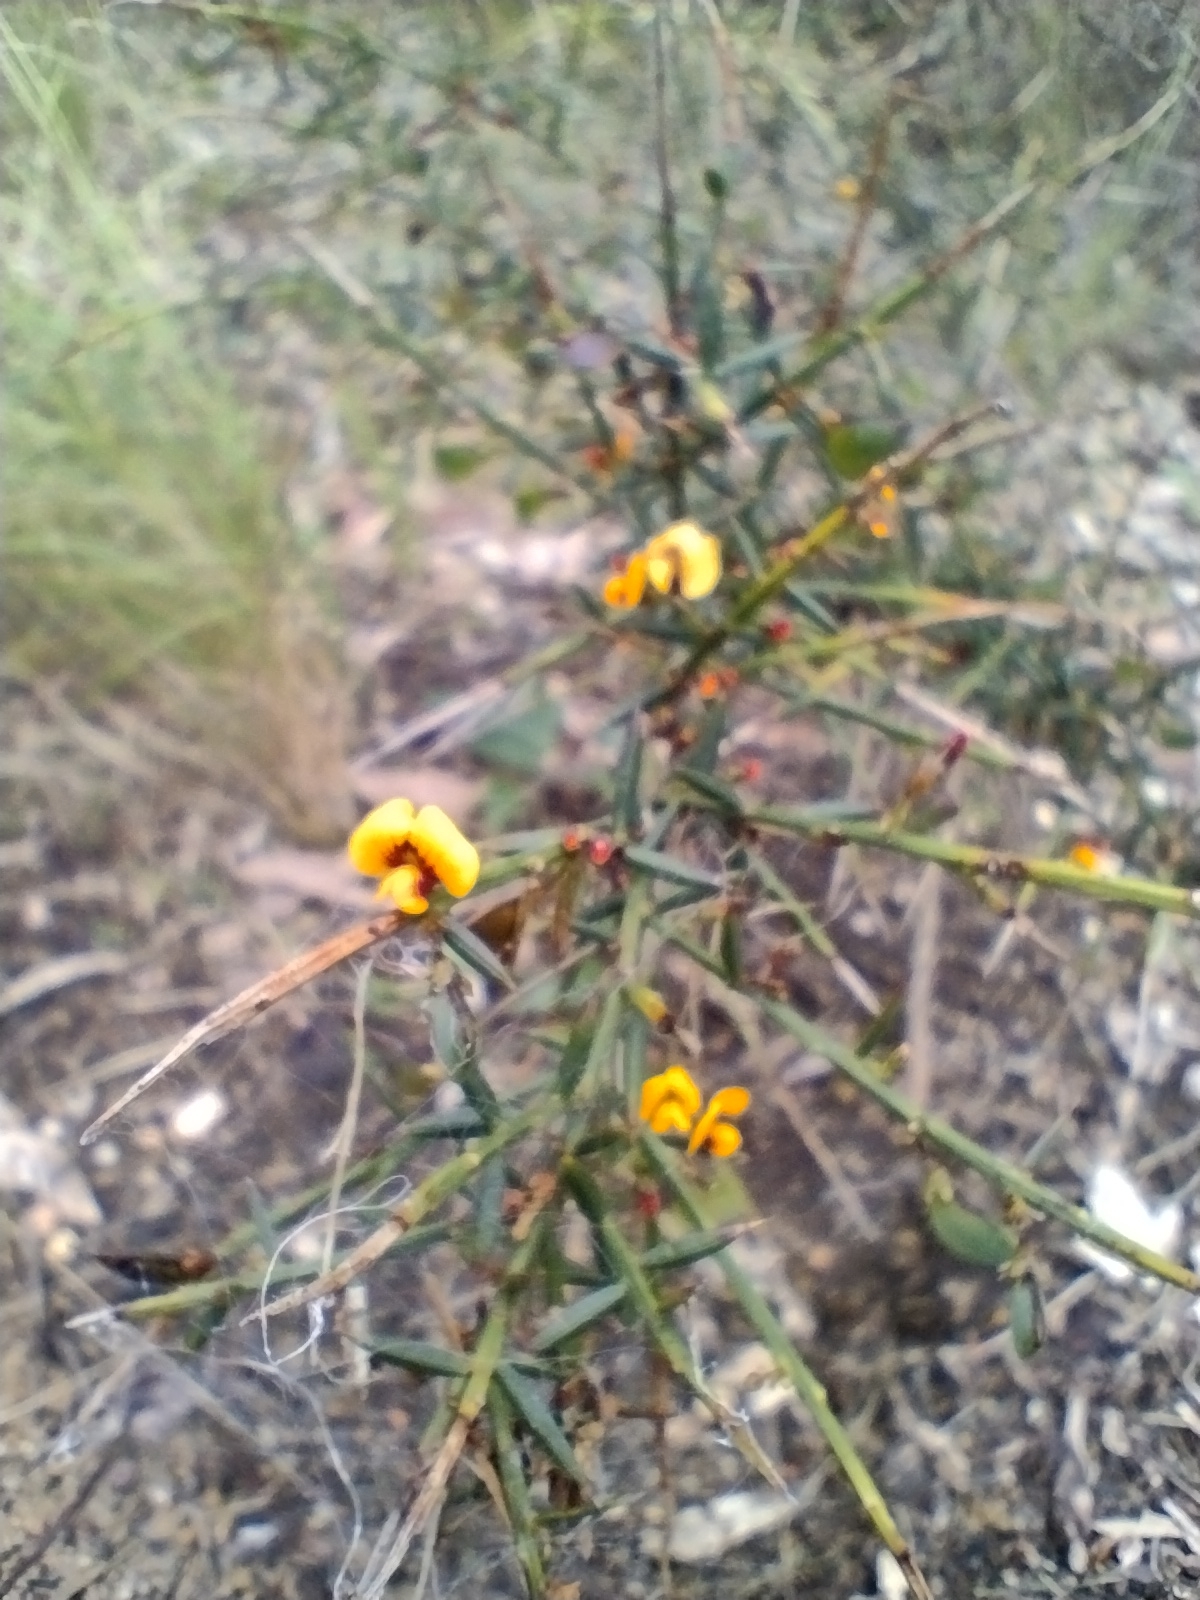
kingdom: Plantae
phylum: Tracheophyta
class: Magnoliopsida
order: Fabales
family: Fabaceae
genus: Daviesia
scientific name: Daviesia ulicifolia
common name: Gorse bitter-pea
